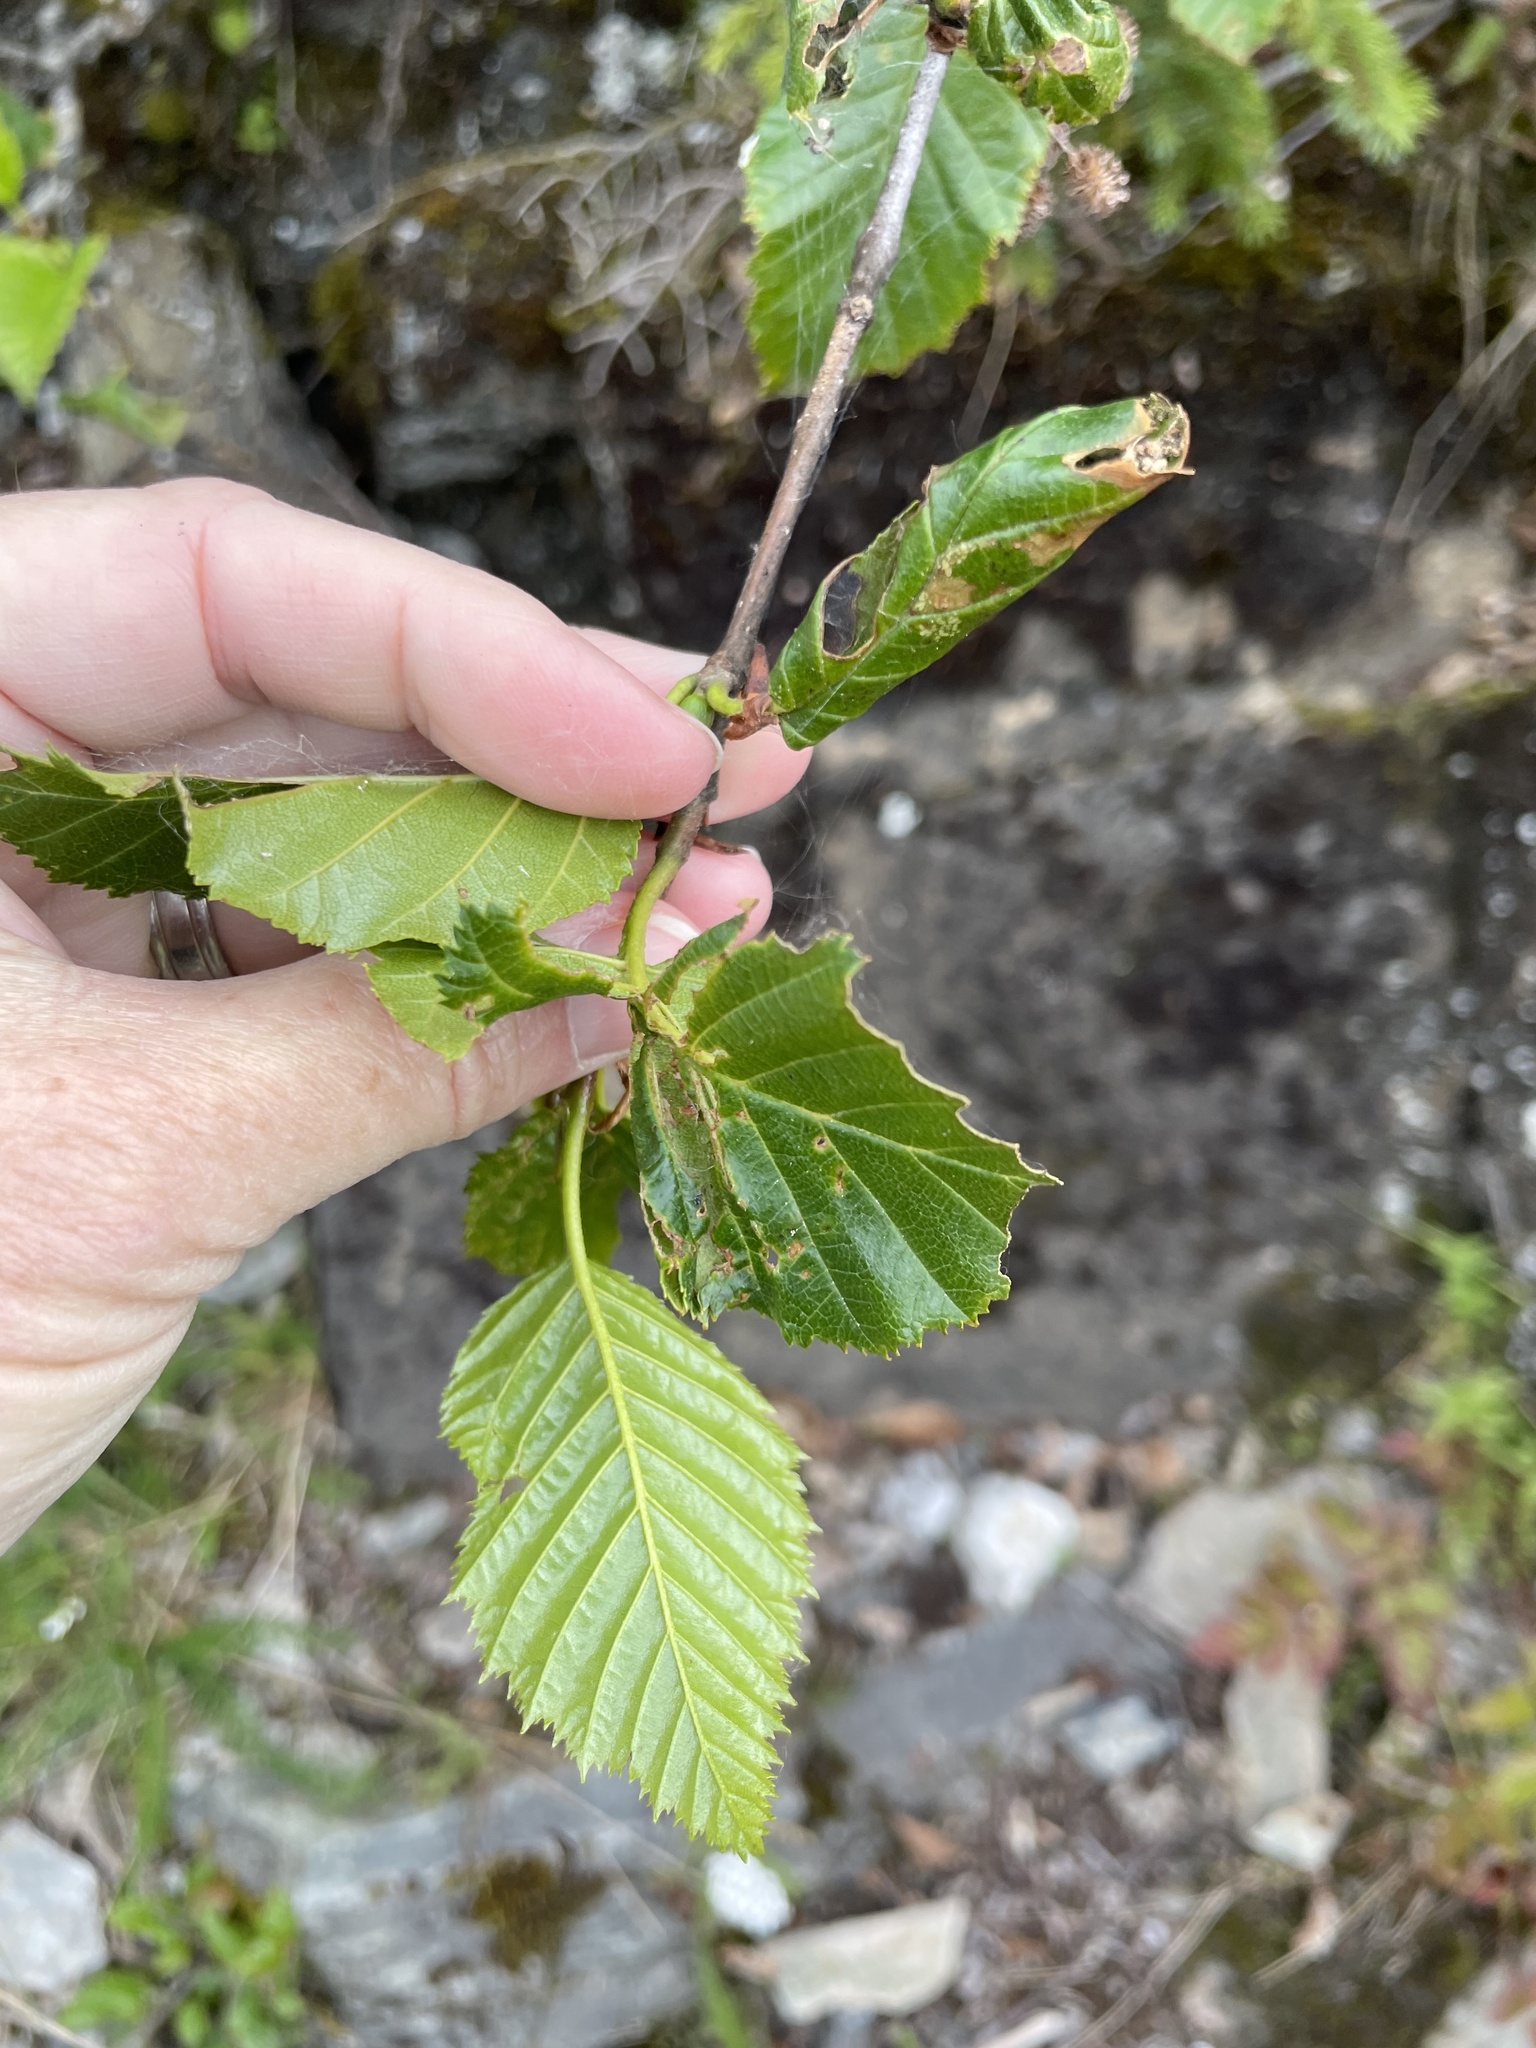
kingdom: Plantae
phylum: Tracheophyta
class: Magnoliopsida
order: Fagales
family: Betulaceae
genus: Alnus
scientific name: Alnus alnobetula
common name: Green alder
